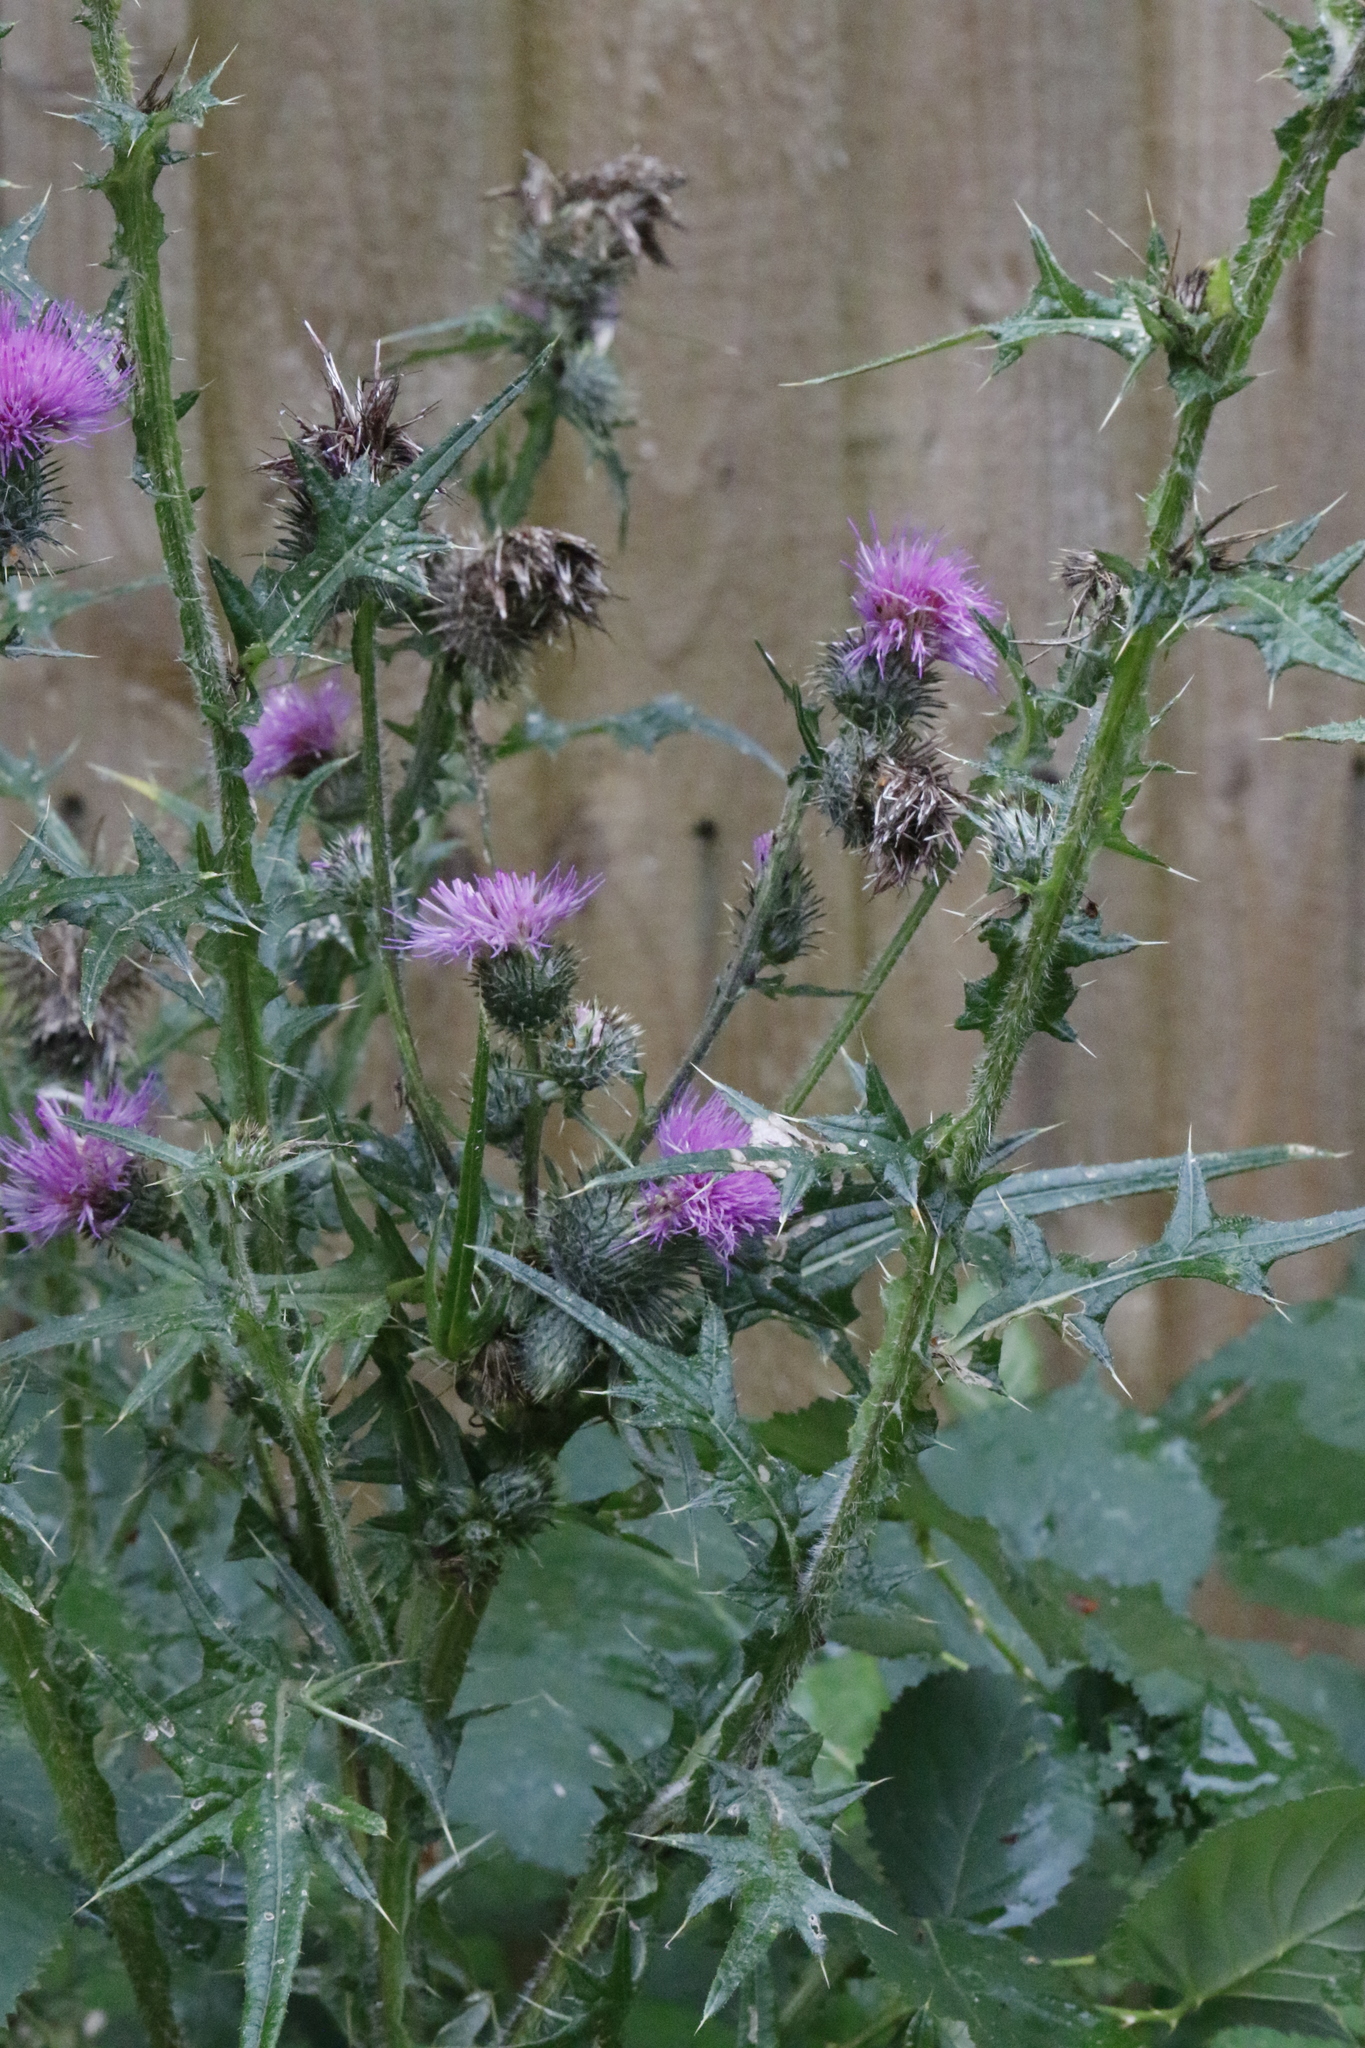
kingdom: Plantae
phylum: Tracheophyta
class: Magnoliopsida
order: Asterales
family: Asteraceae
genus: Cirsium
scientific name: Cirsium vulgare
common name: Bull thistle
